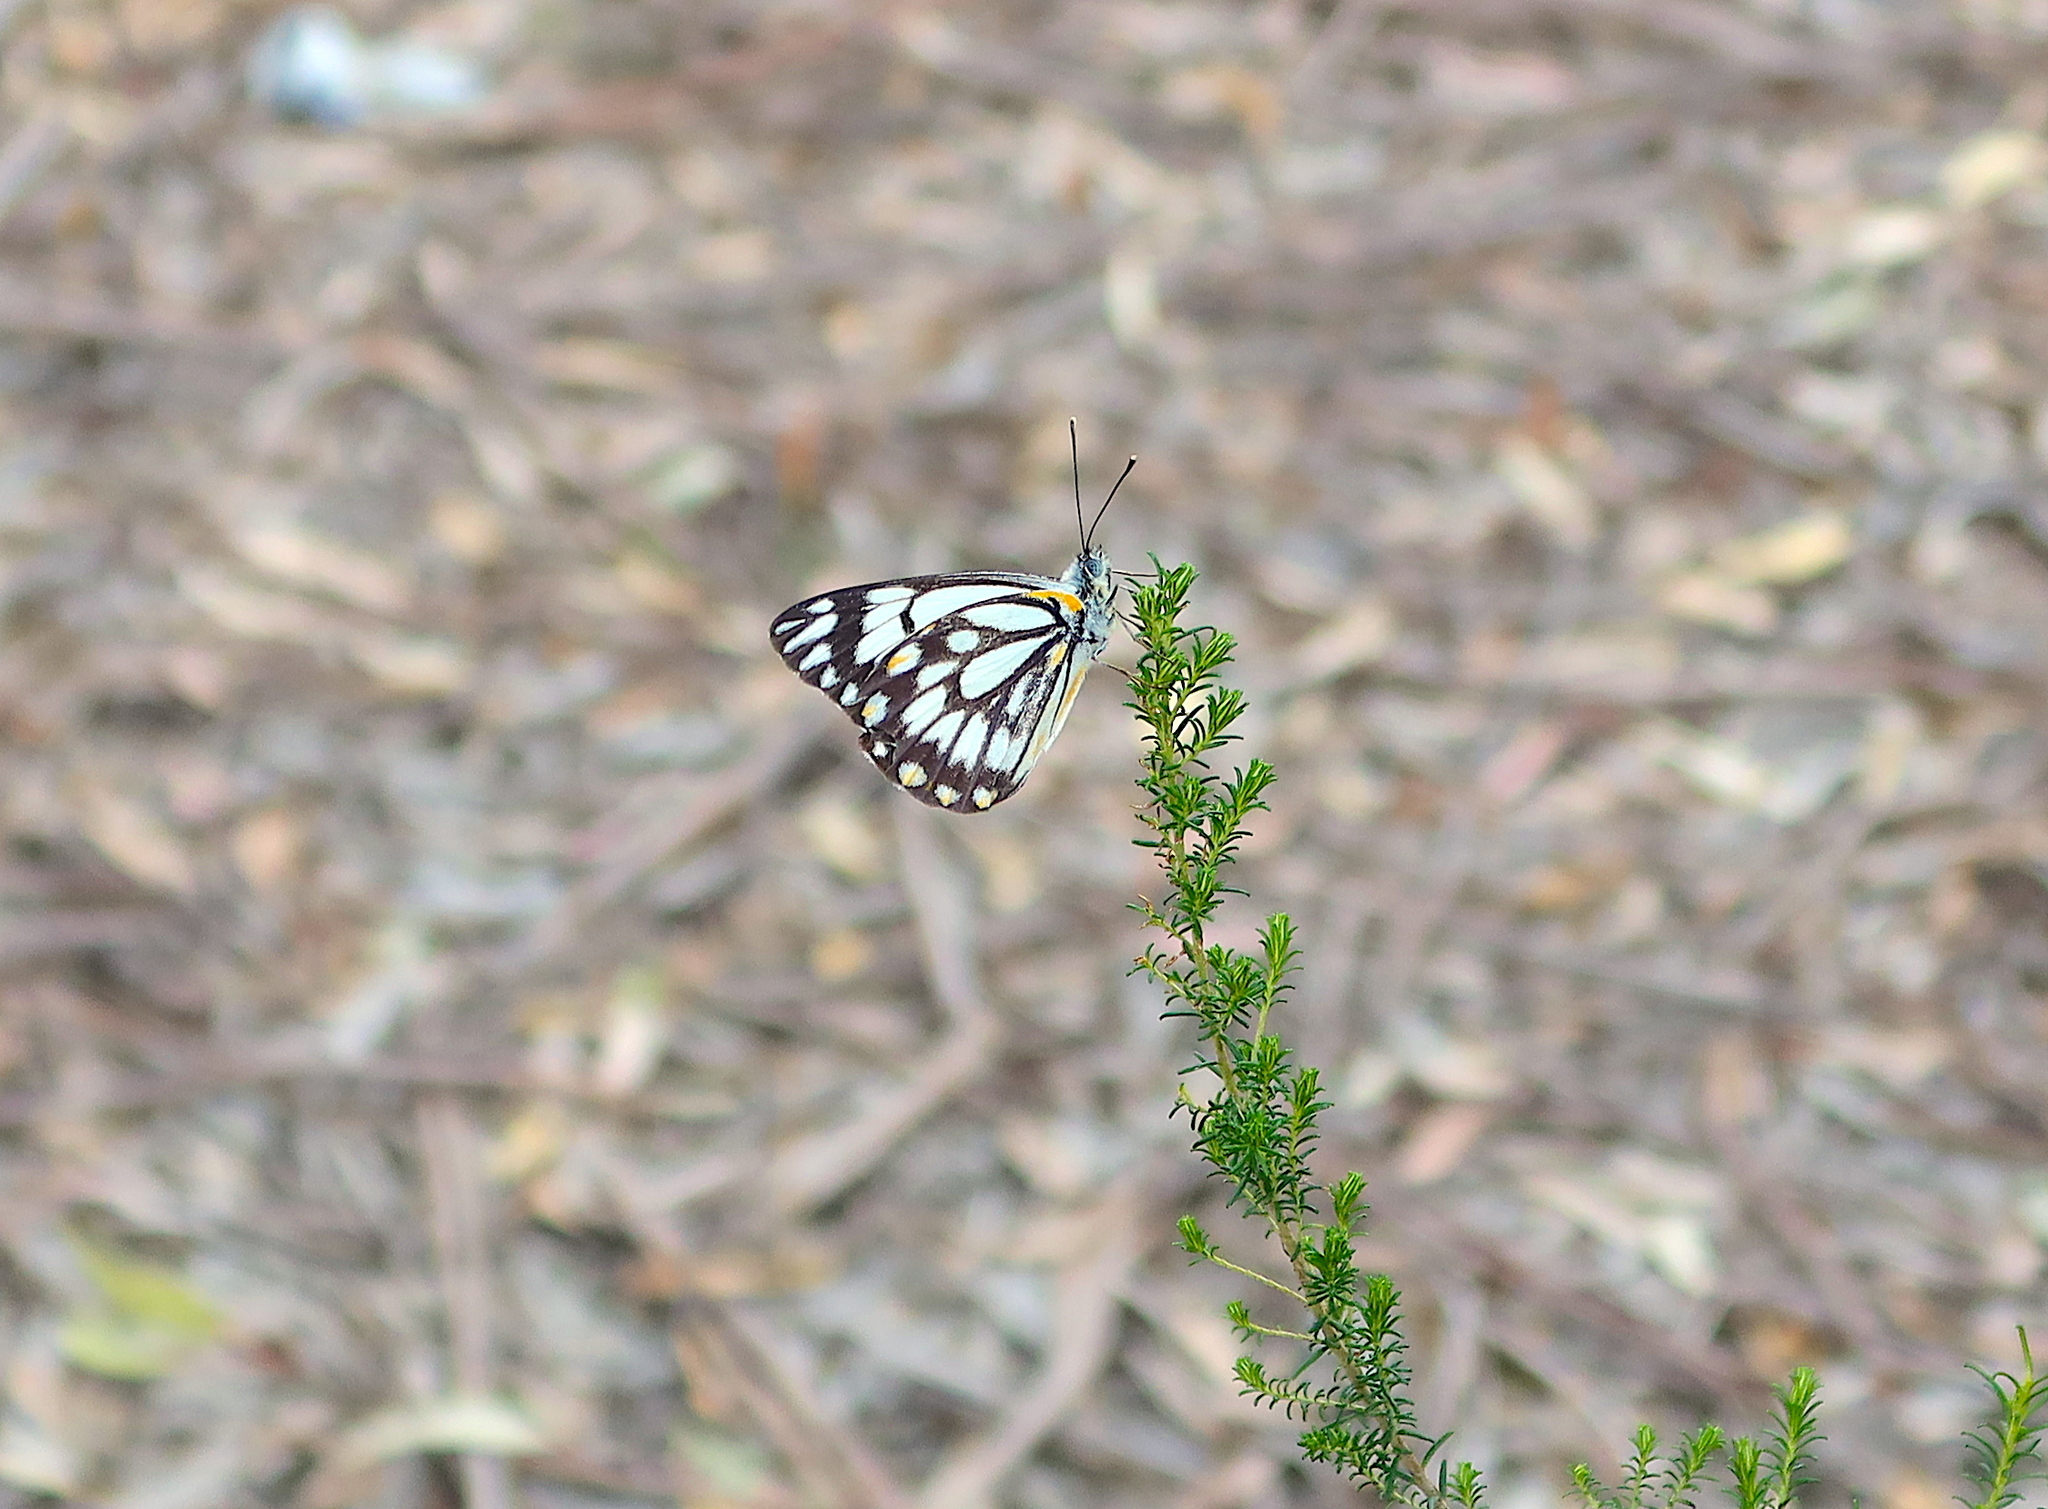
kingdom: Animalia
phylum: Arthropoda
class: Insecta
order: Lepidoptera
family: Pieridae
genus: Belenois
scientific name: Belenois java
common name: Caper white
